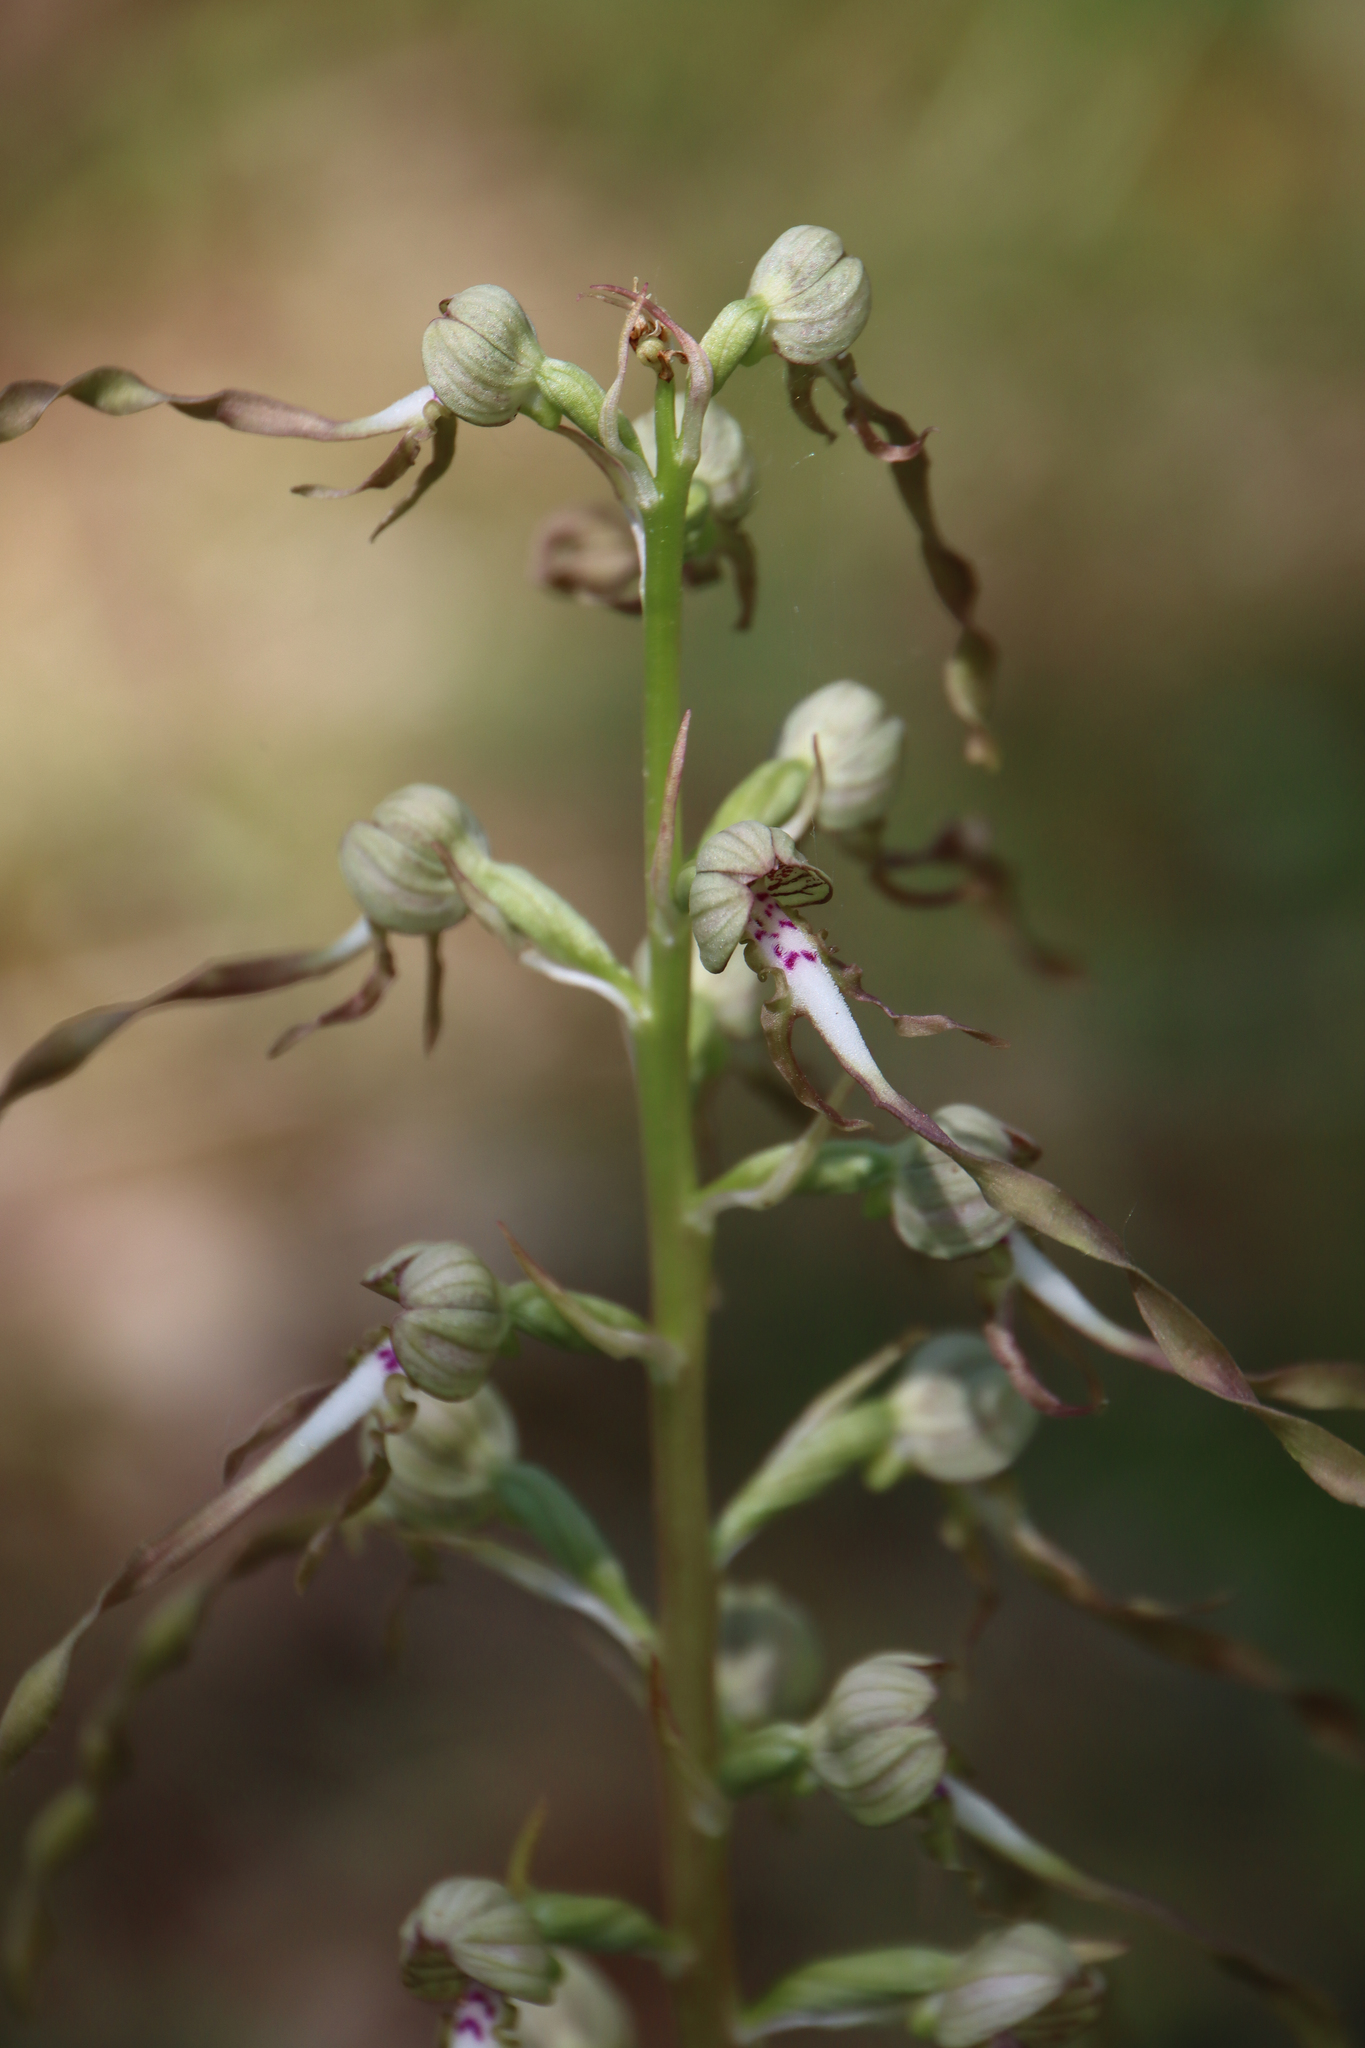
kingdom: Plantae
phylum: Tracheophyta
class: Liliopsida
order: Asparagales
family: Orchidaceae
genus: Himantoglossum
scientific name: Himantoglossum hircinum
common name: Lizard orchid
